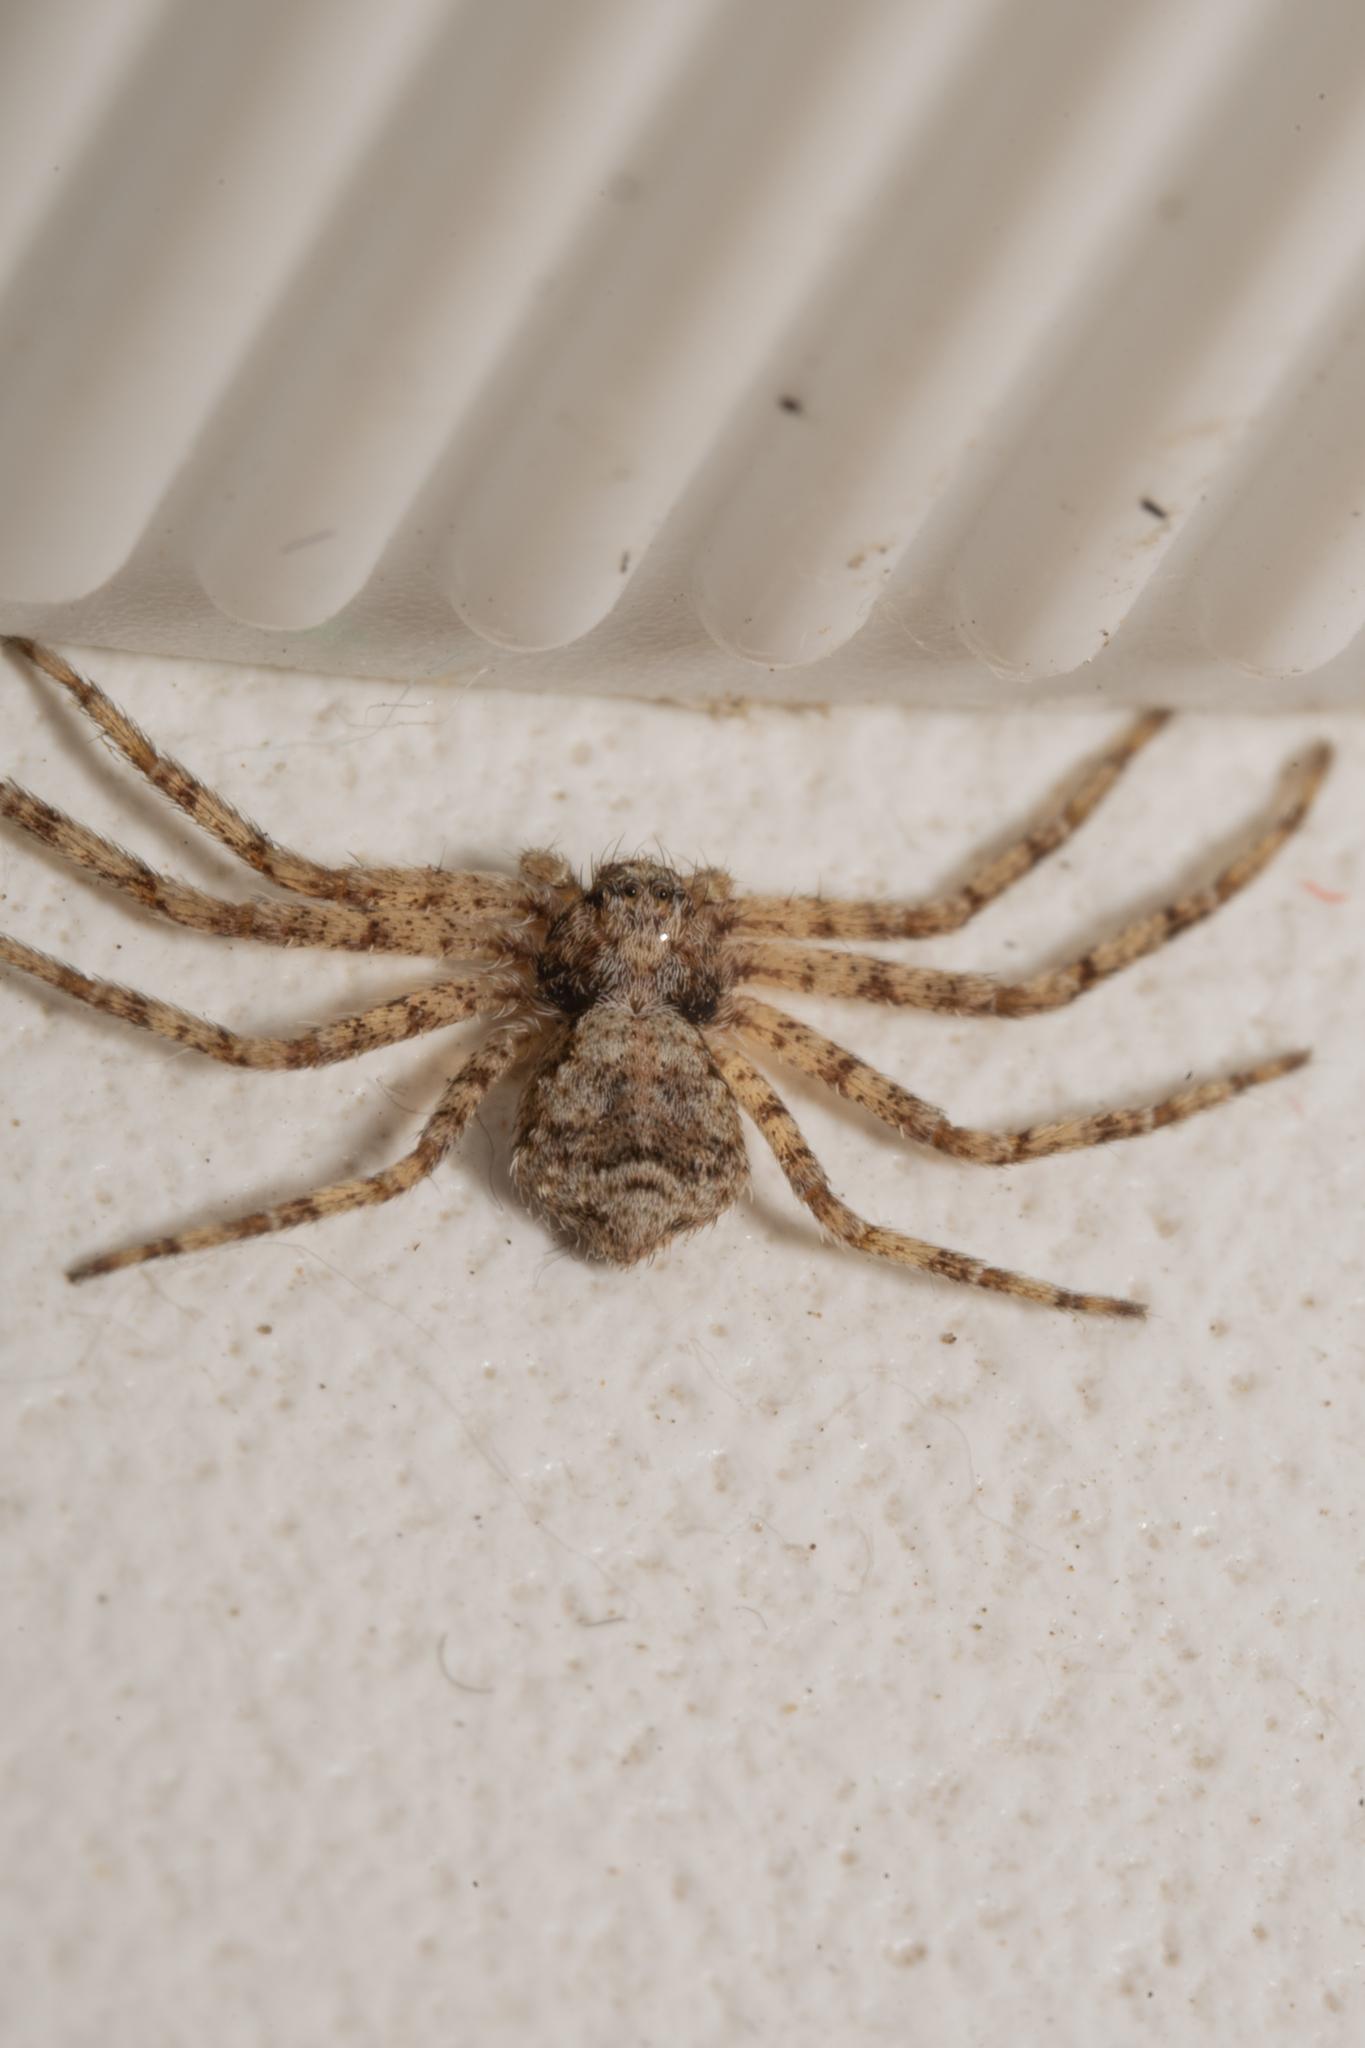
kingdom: Animalia
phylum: Arthropoda
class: Arachnida
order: Araneae
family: Philodromidae
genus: Philodromus
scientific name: Philodromus poecilus
